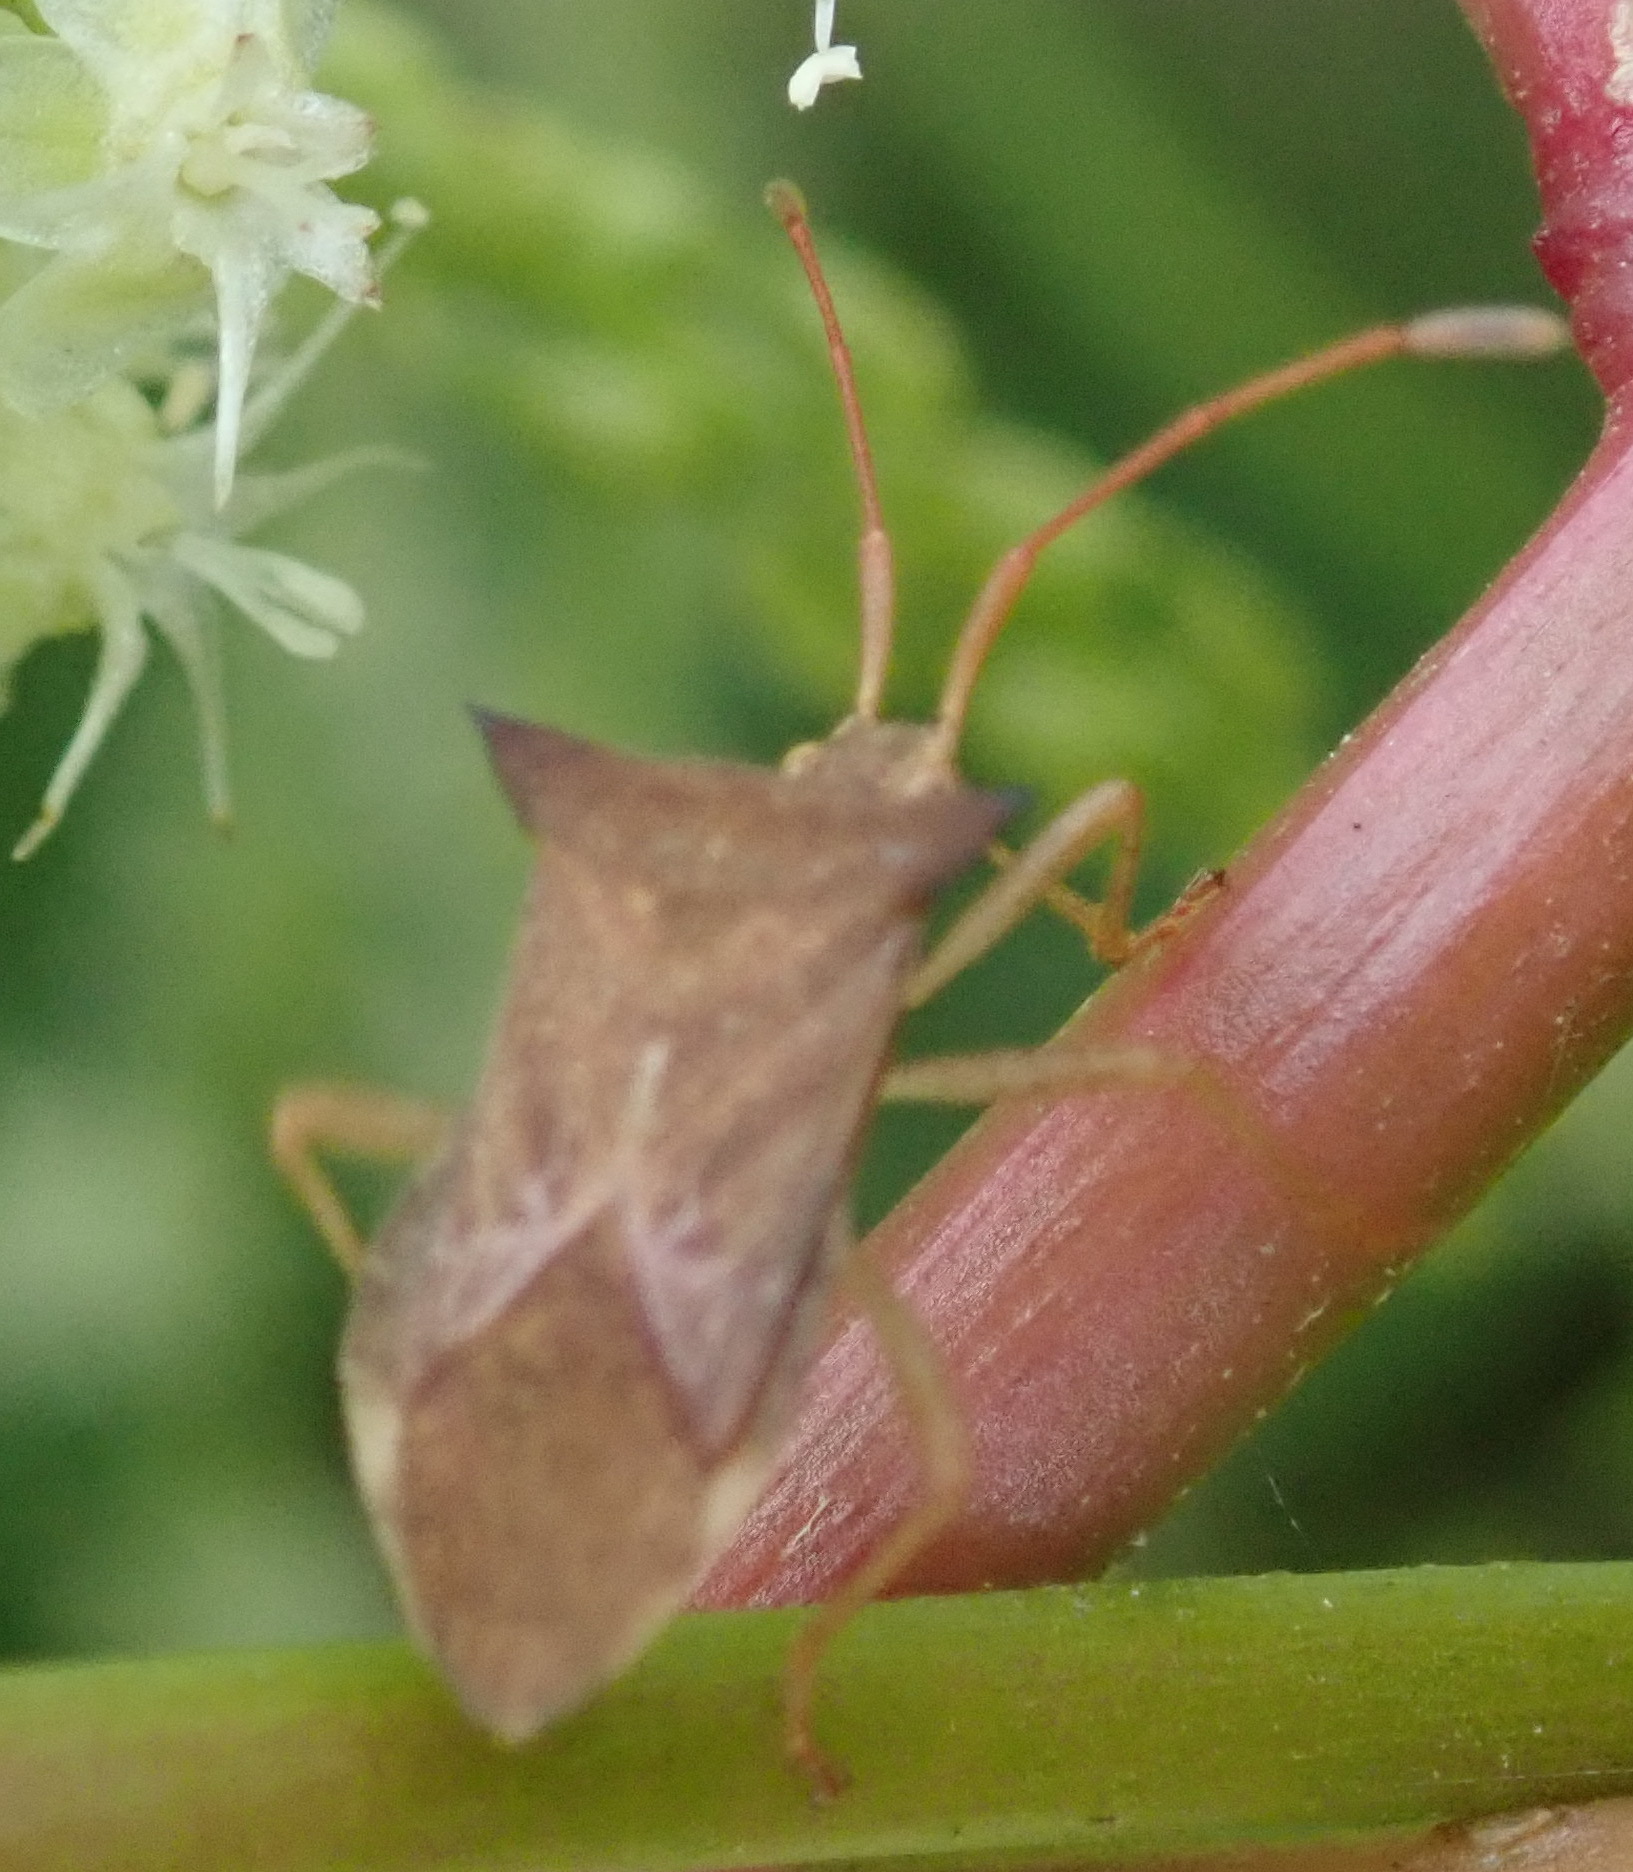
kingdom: Animalia
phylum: Arthropoda
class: Insecta
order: Hemiptera
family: Coreidae
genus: Cletus
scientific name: Cletus ochraceus
